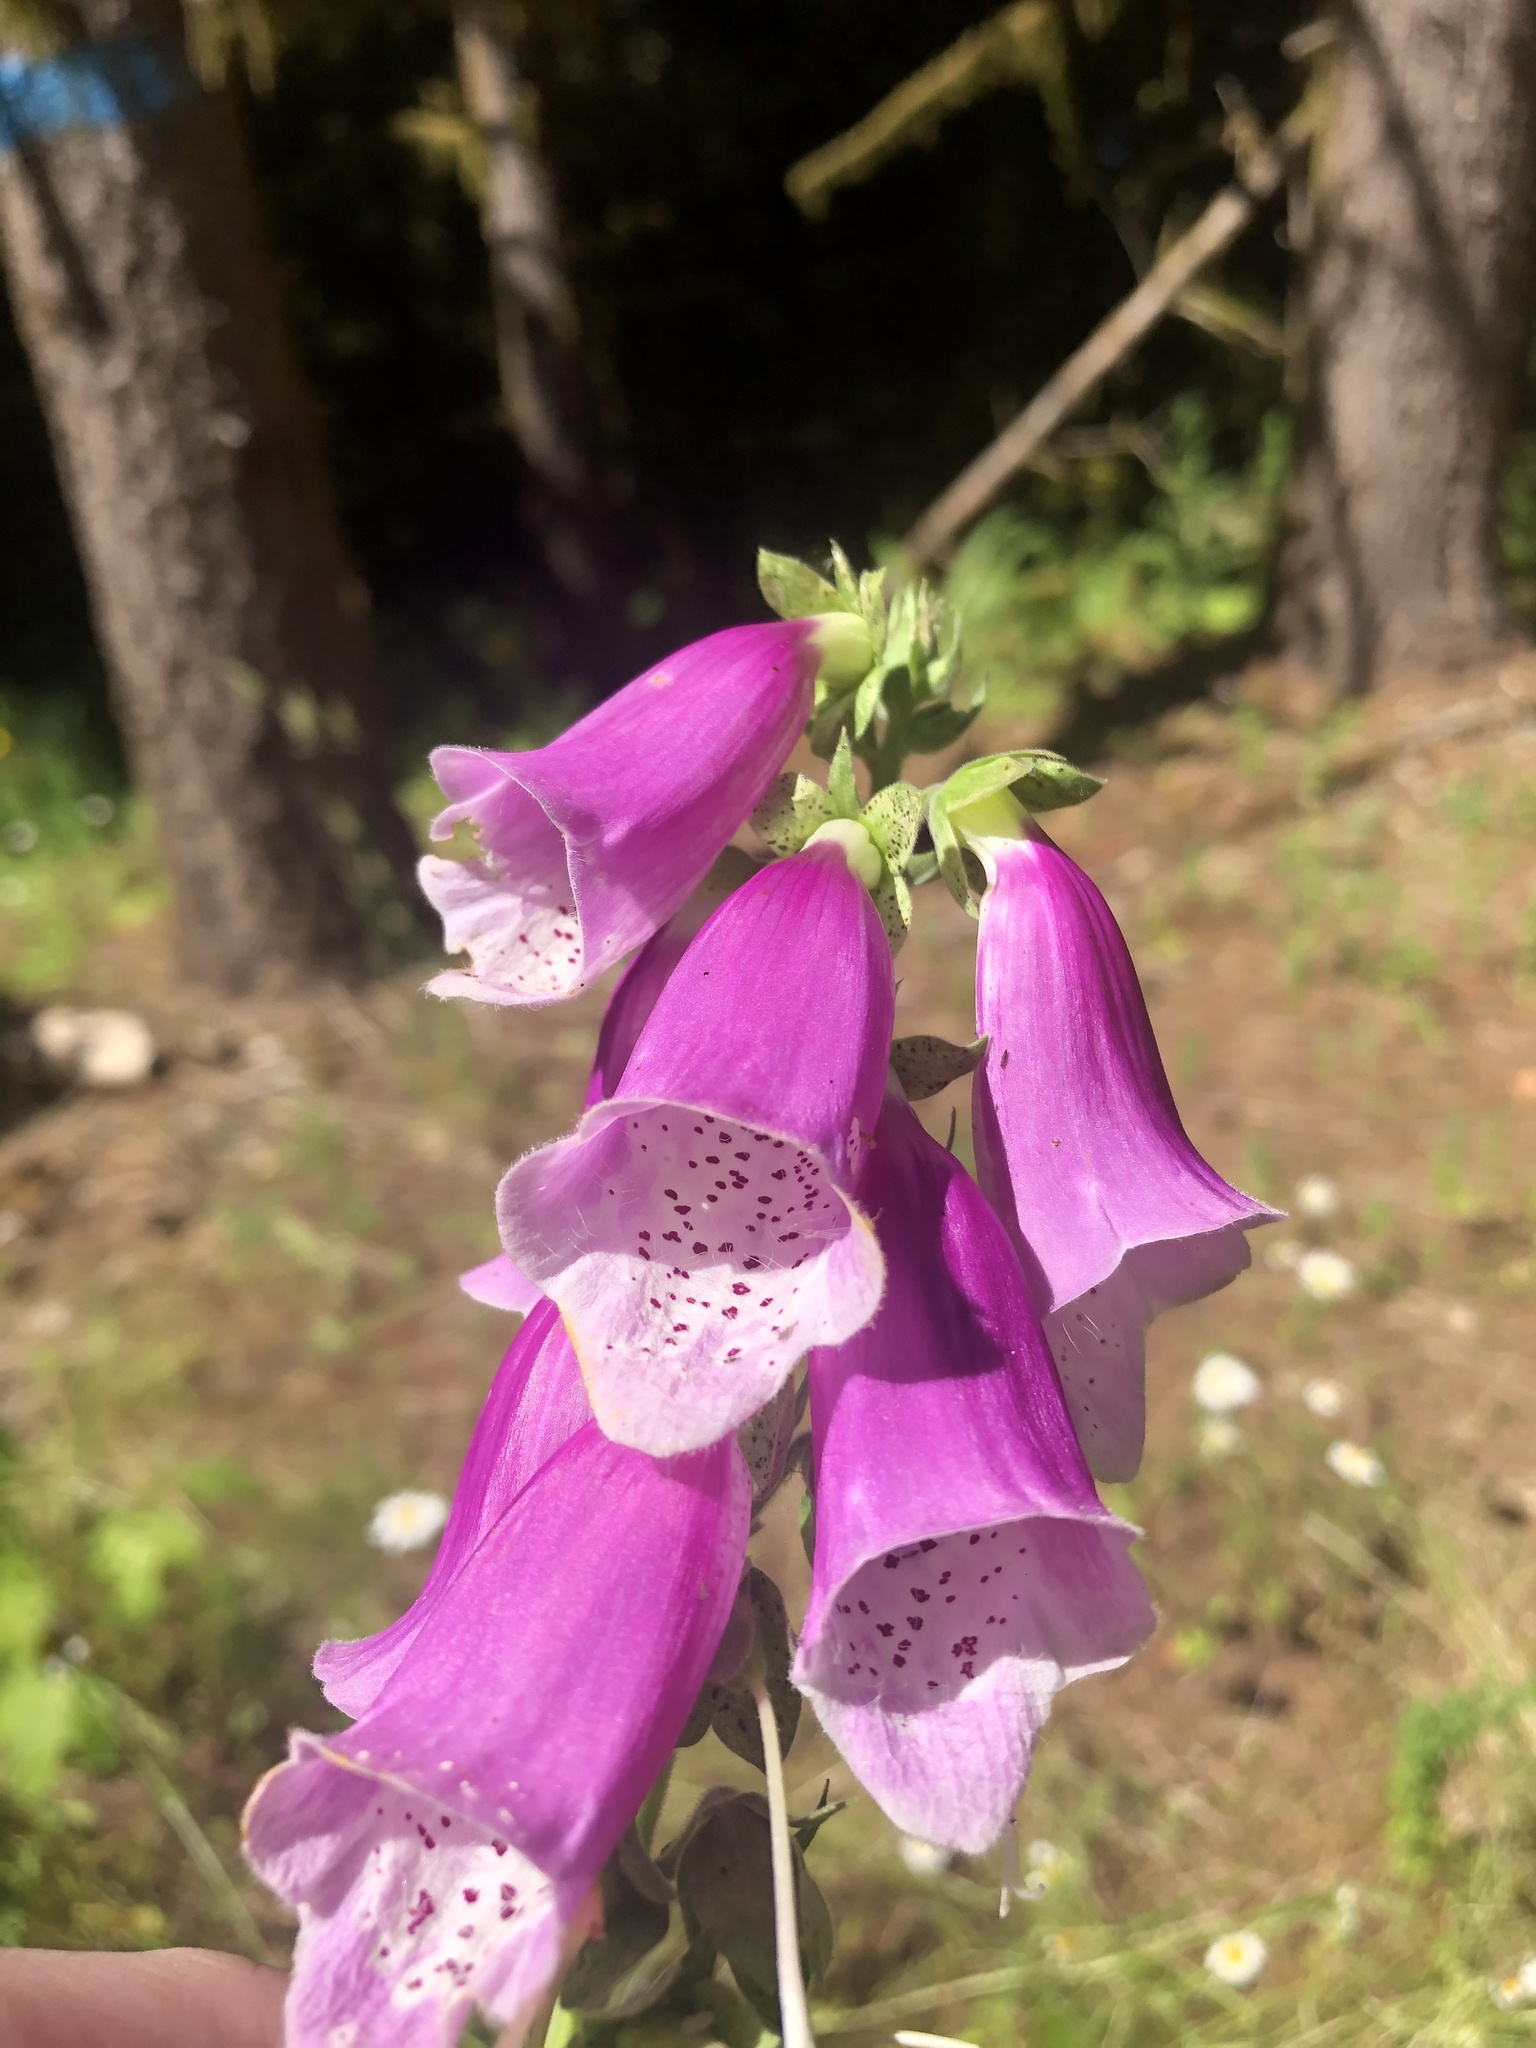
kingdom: Plantae
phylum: Tracheophyta
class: Magnoliopsida
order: Lamiales
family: Plantaginaceae
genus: Digitalis
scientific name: Digitalis purpurea
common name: Foxglove
